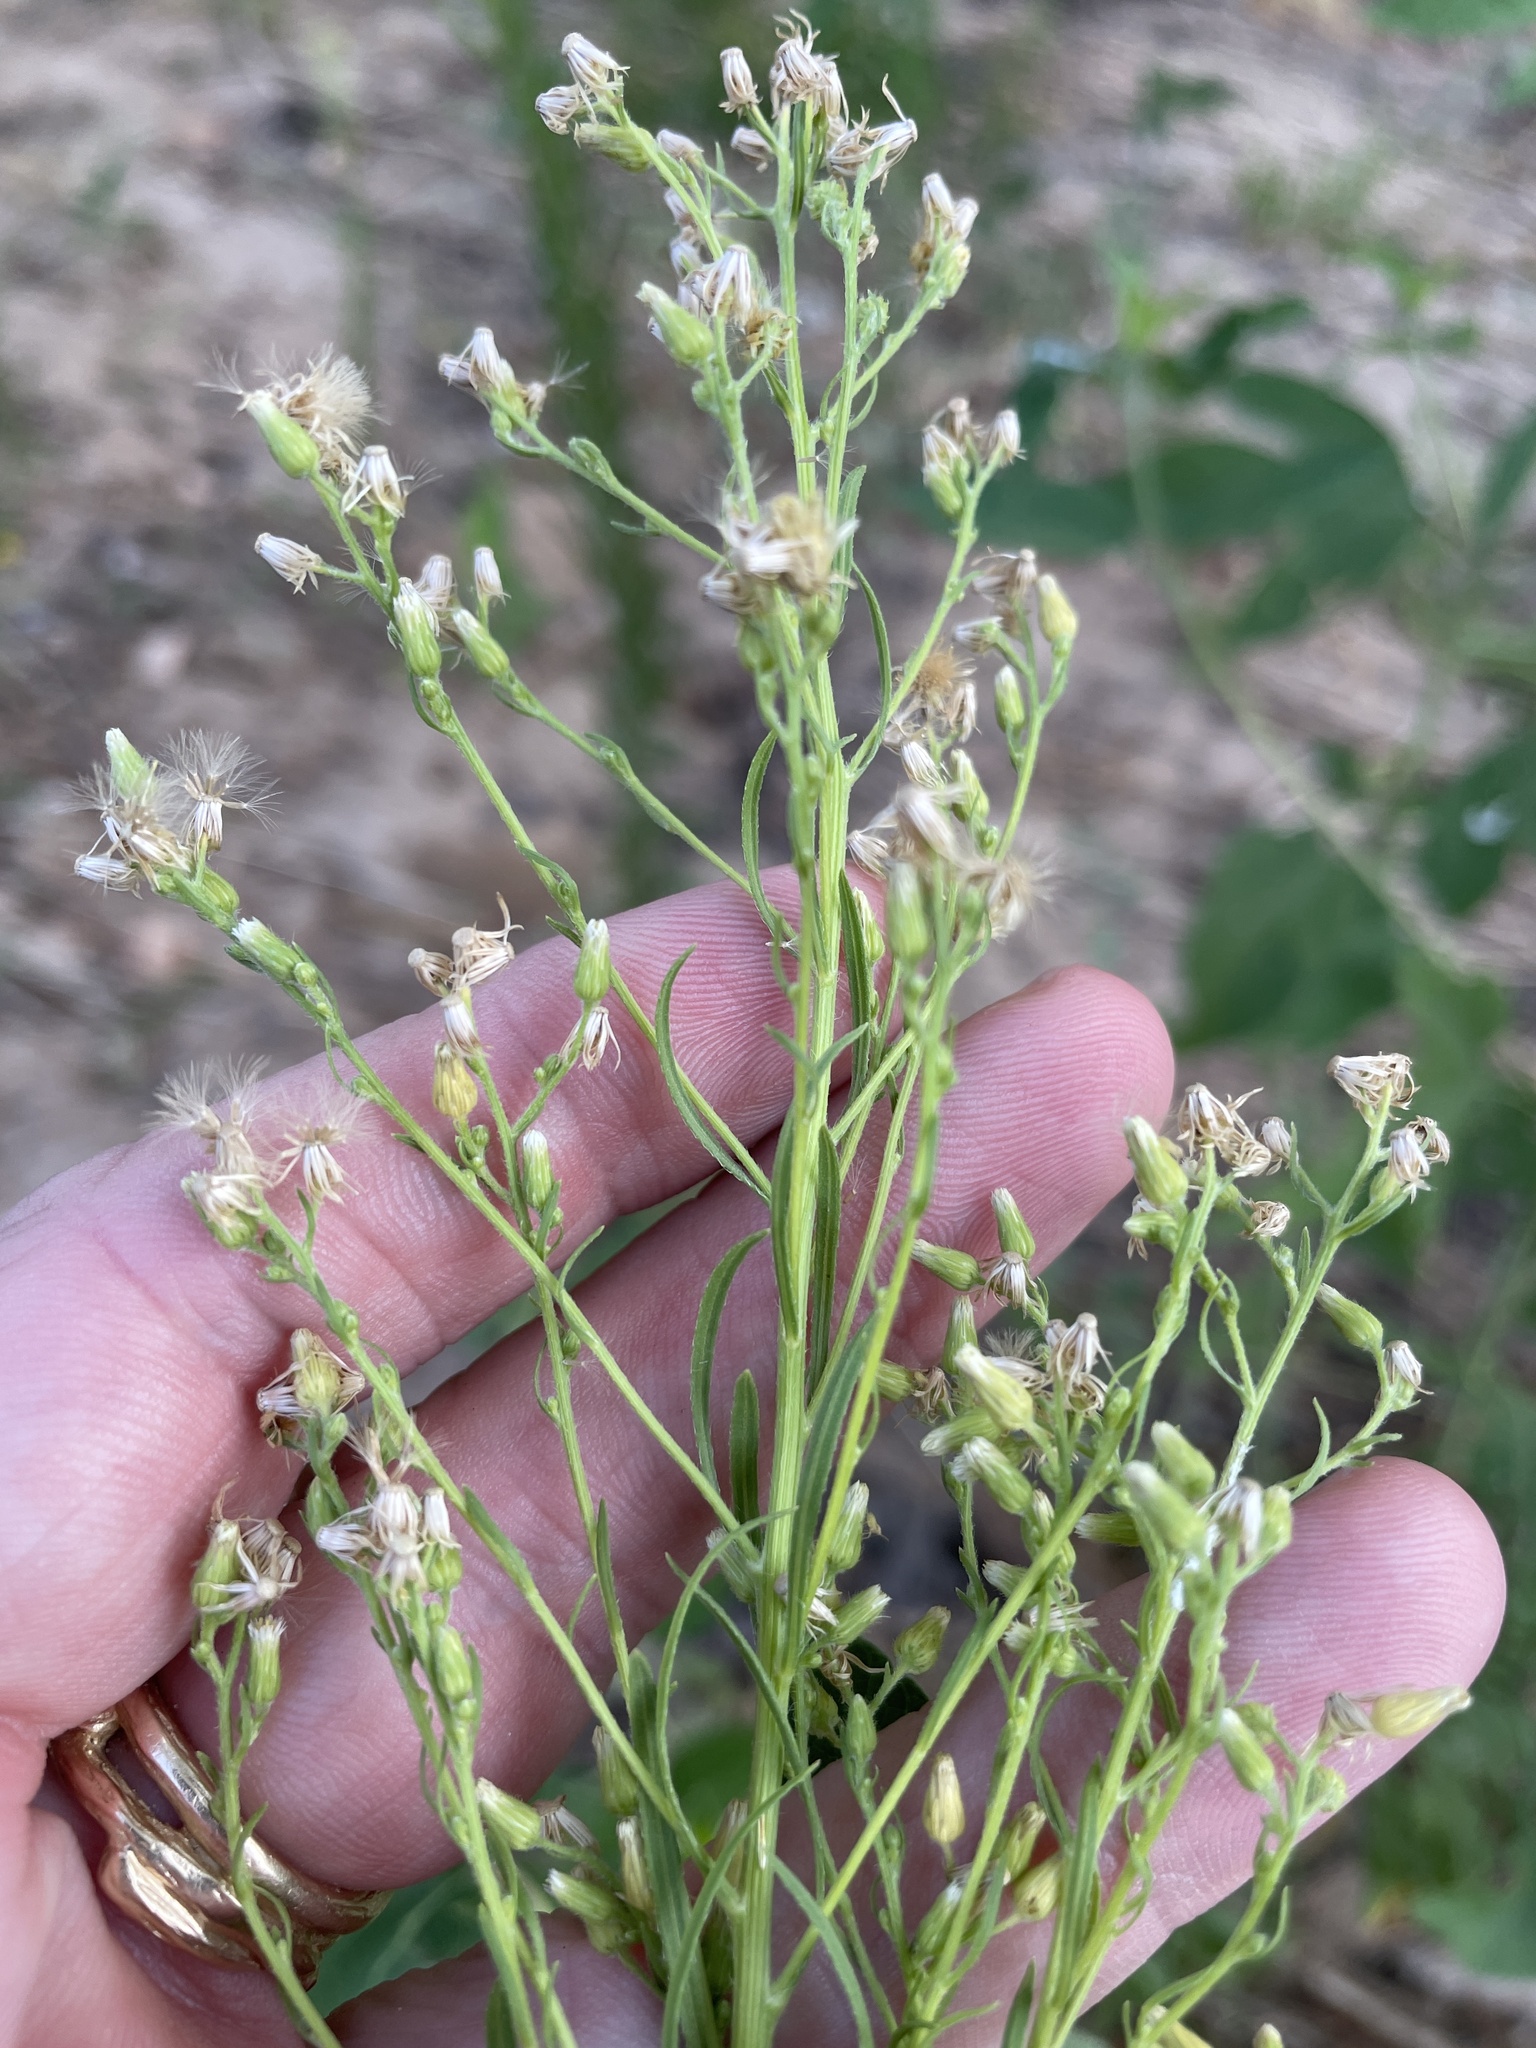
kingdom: Plantae
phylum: Tracheophyta
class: Magnoliopsida
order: Asterales
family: Asteraceae
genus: Erigeron
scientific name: Erigeron canadensis
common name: Canadian fleabane
